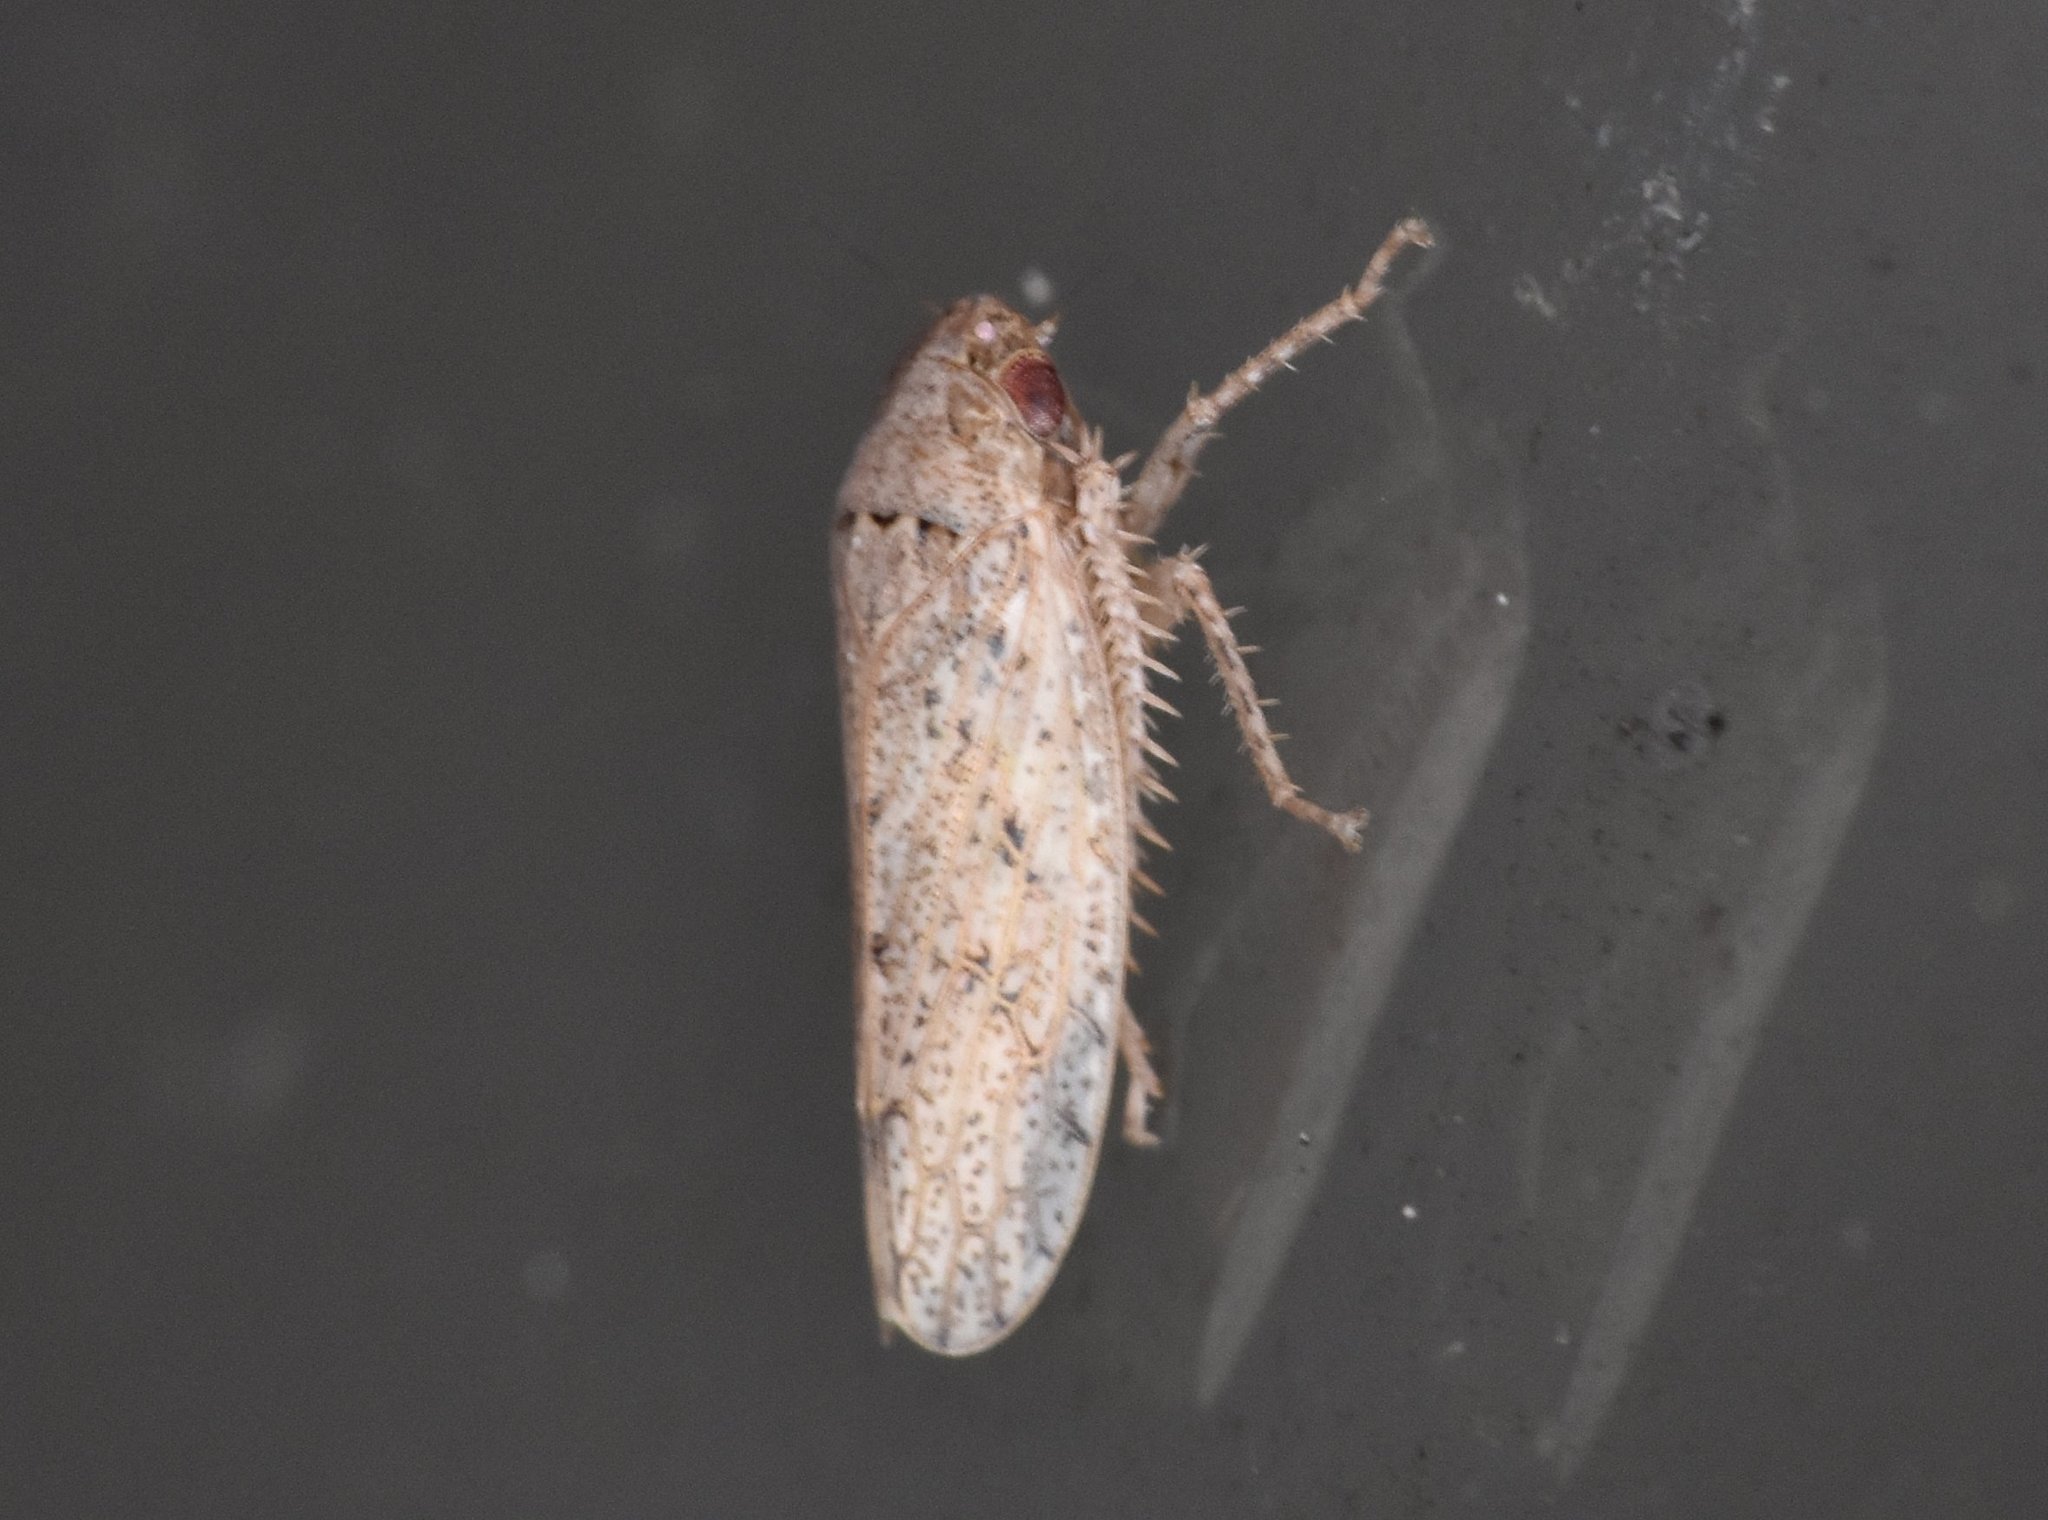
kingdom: Animalia
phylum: Arthropoda
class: Insecta
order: Hemiptera
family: Cicadellidae
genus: Curtara
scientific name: Curtara insularis
